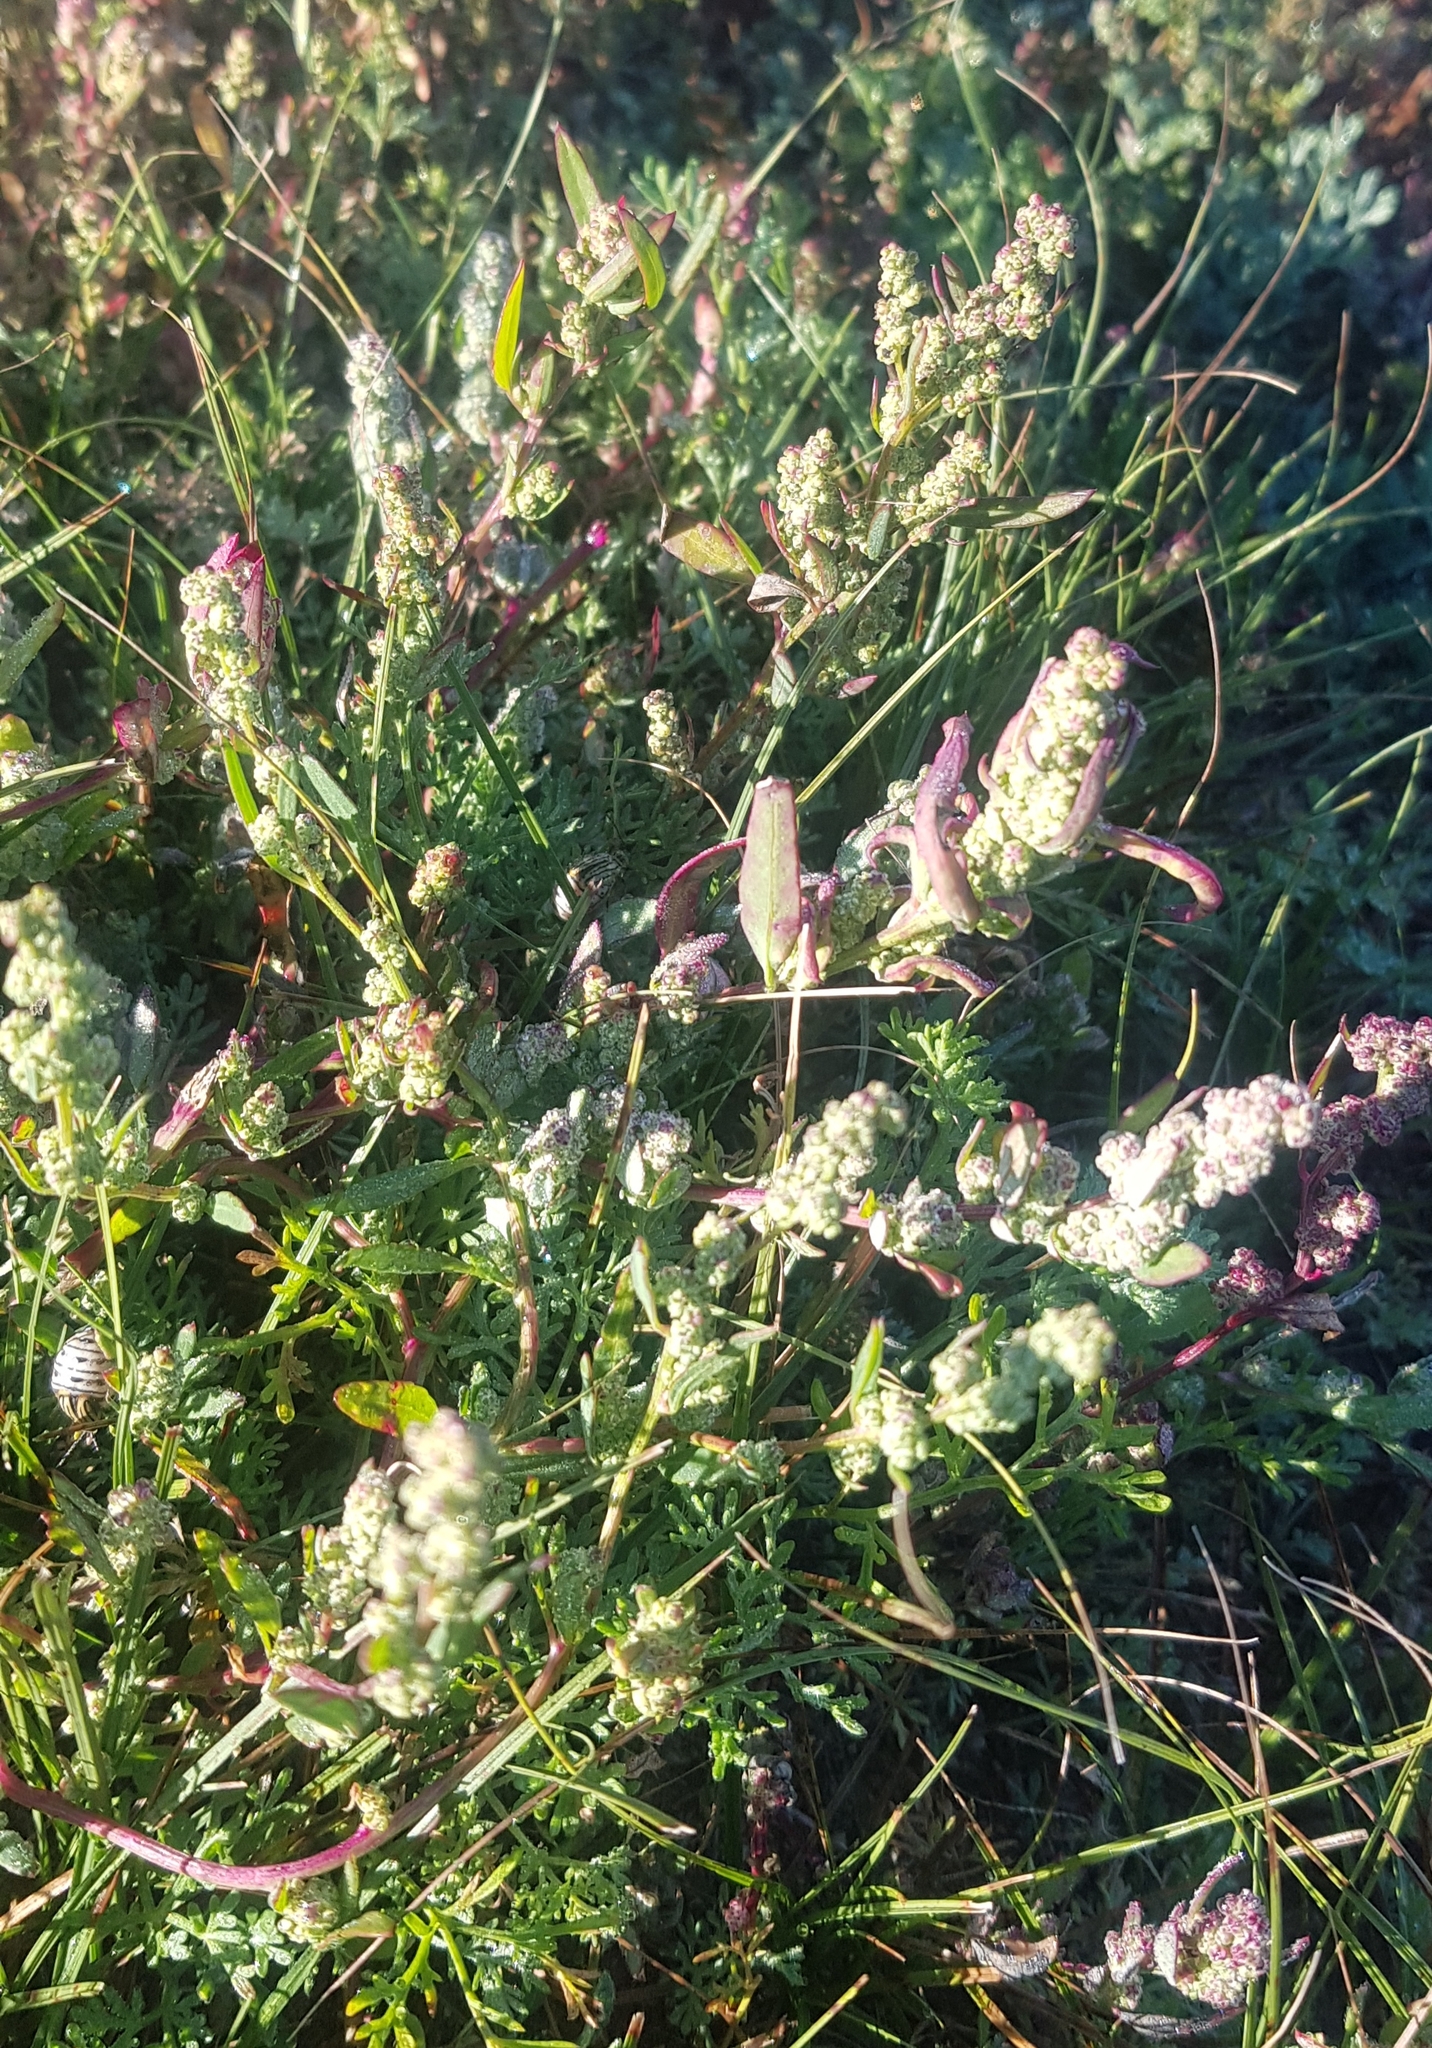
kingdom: Plantae
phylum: Tracheophyta
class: Magnoliopsida
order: Caryophyllales
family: Amaranthaceae
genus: Chenopodium
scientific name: Chenopodium album
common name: Fat-hen
